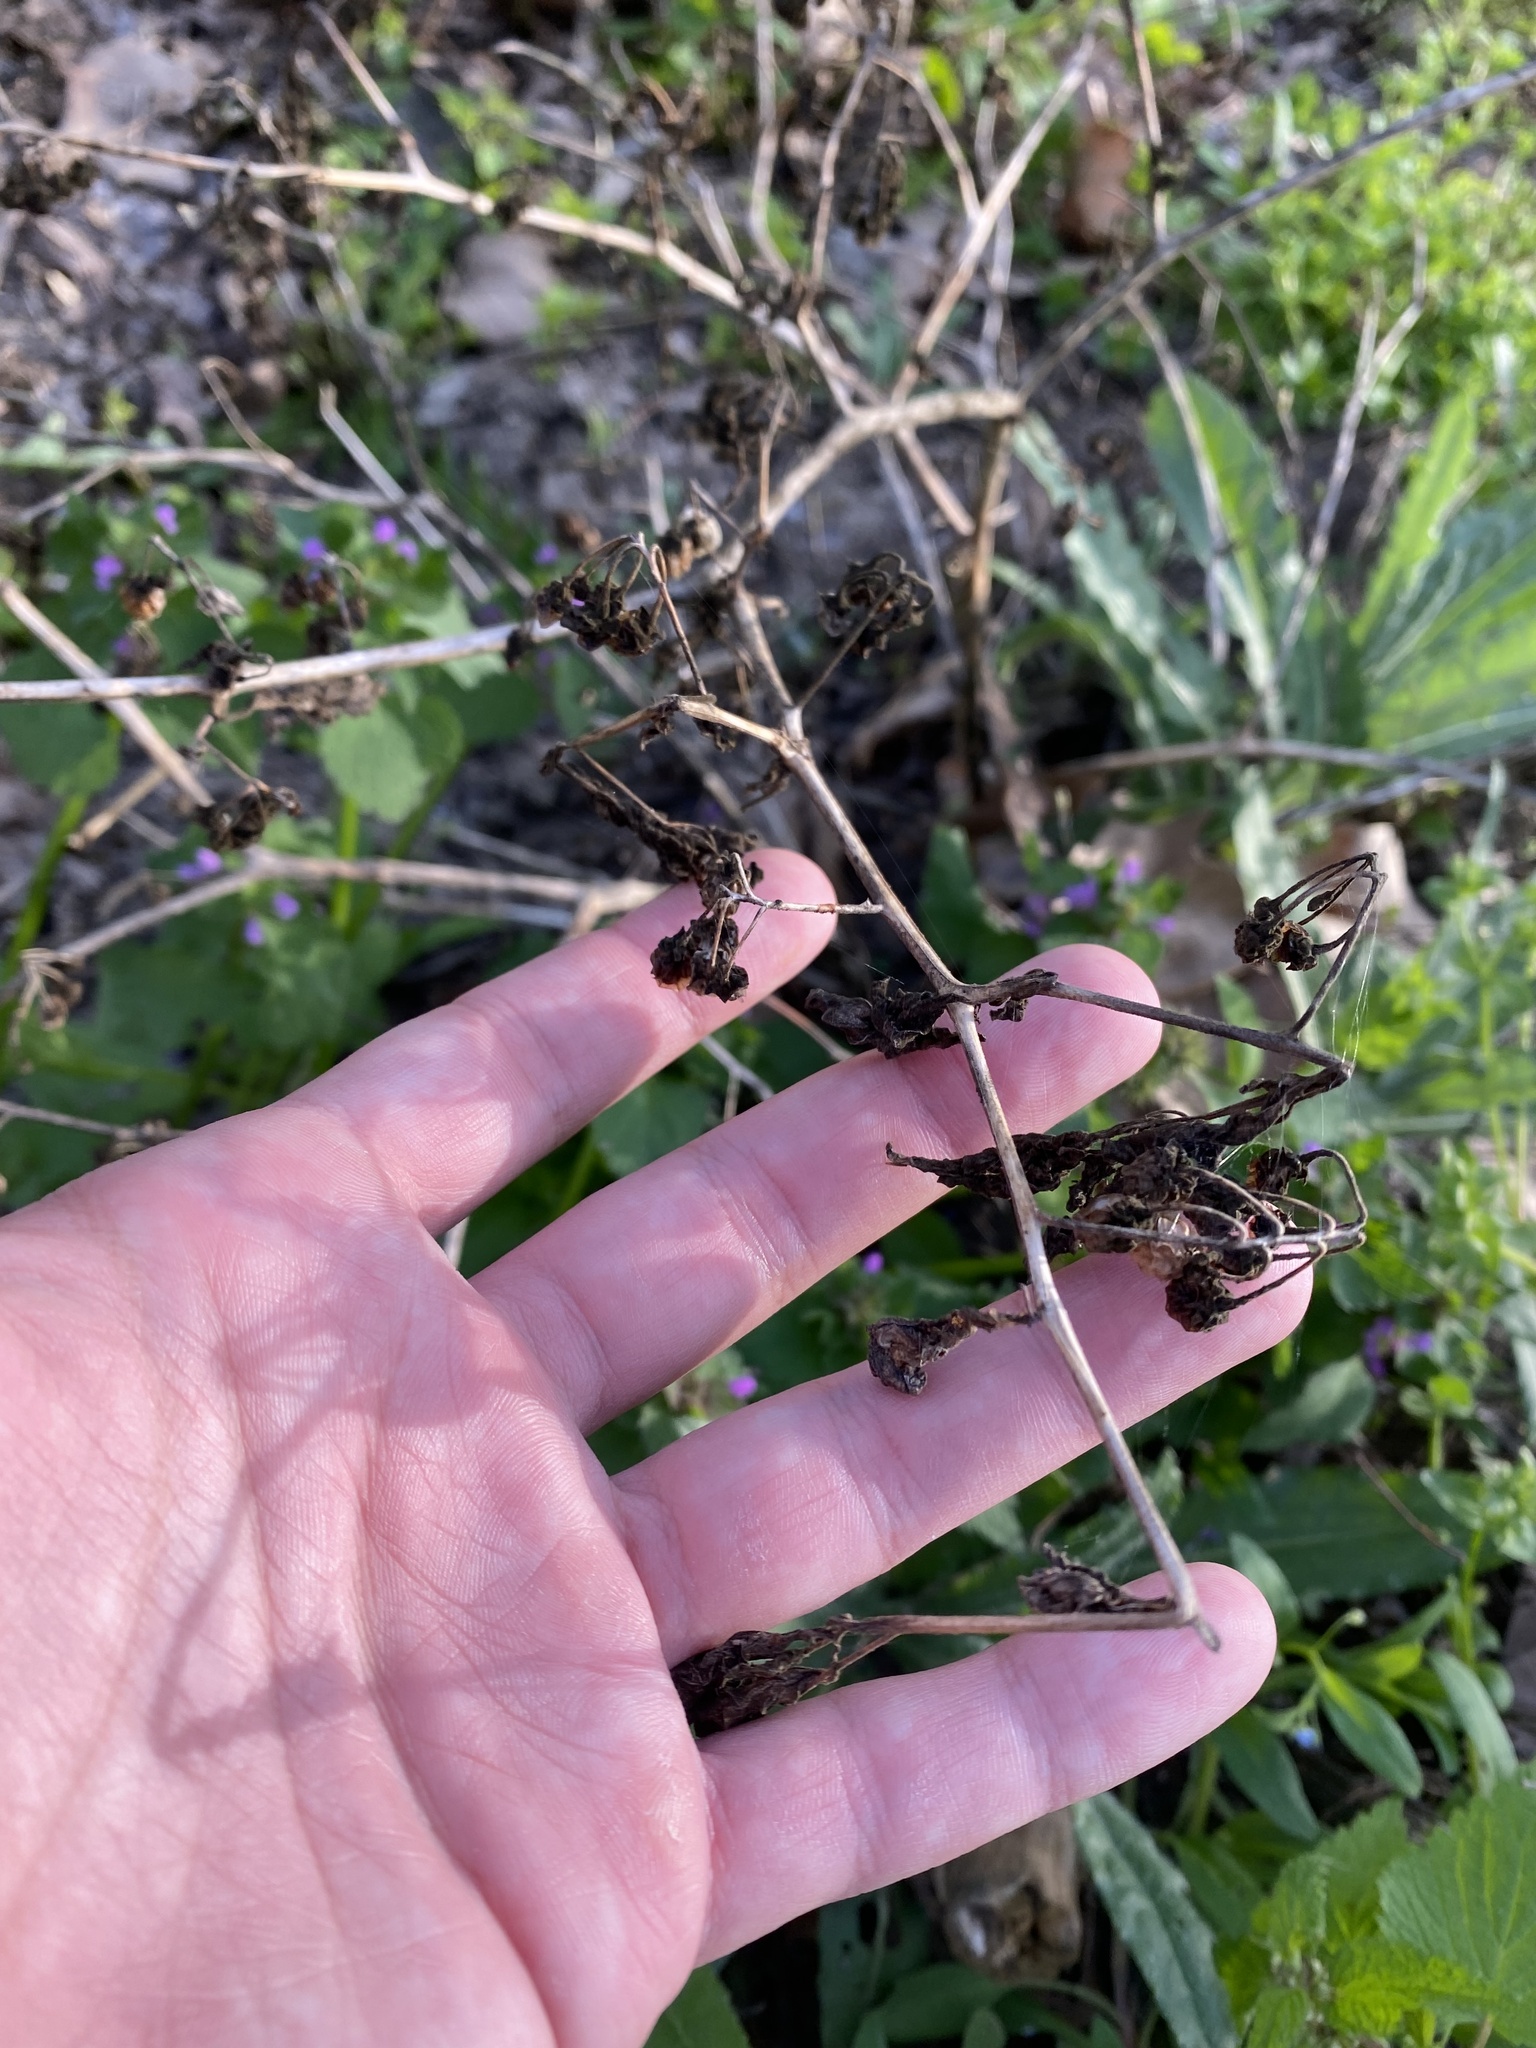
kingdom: Plantae
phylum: Tracheophyta
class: Magnoliopsida
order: Solanales
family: Solanaceae
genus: Solanum
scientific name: Solanum nigrum
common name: Black nightshade
